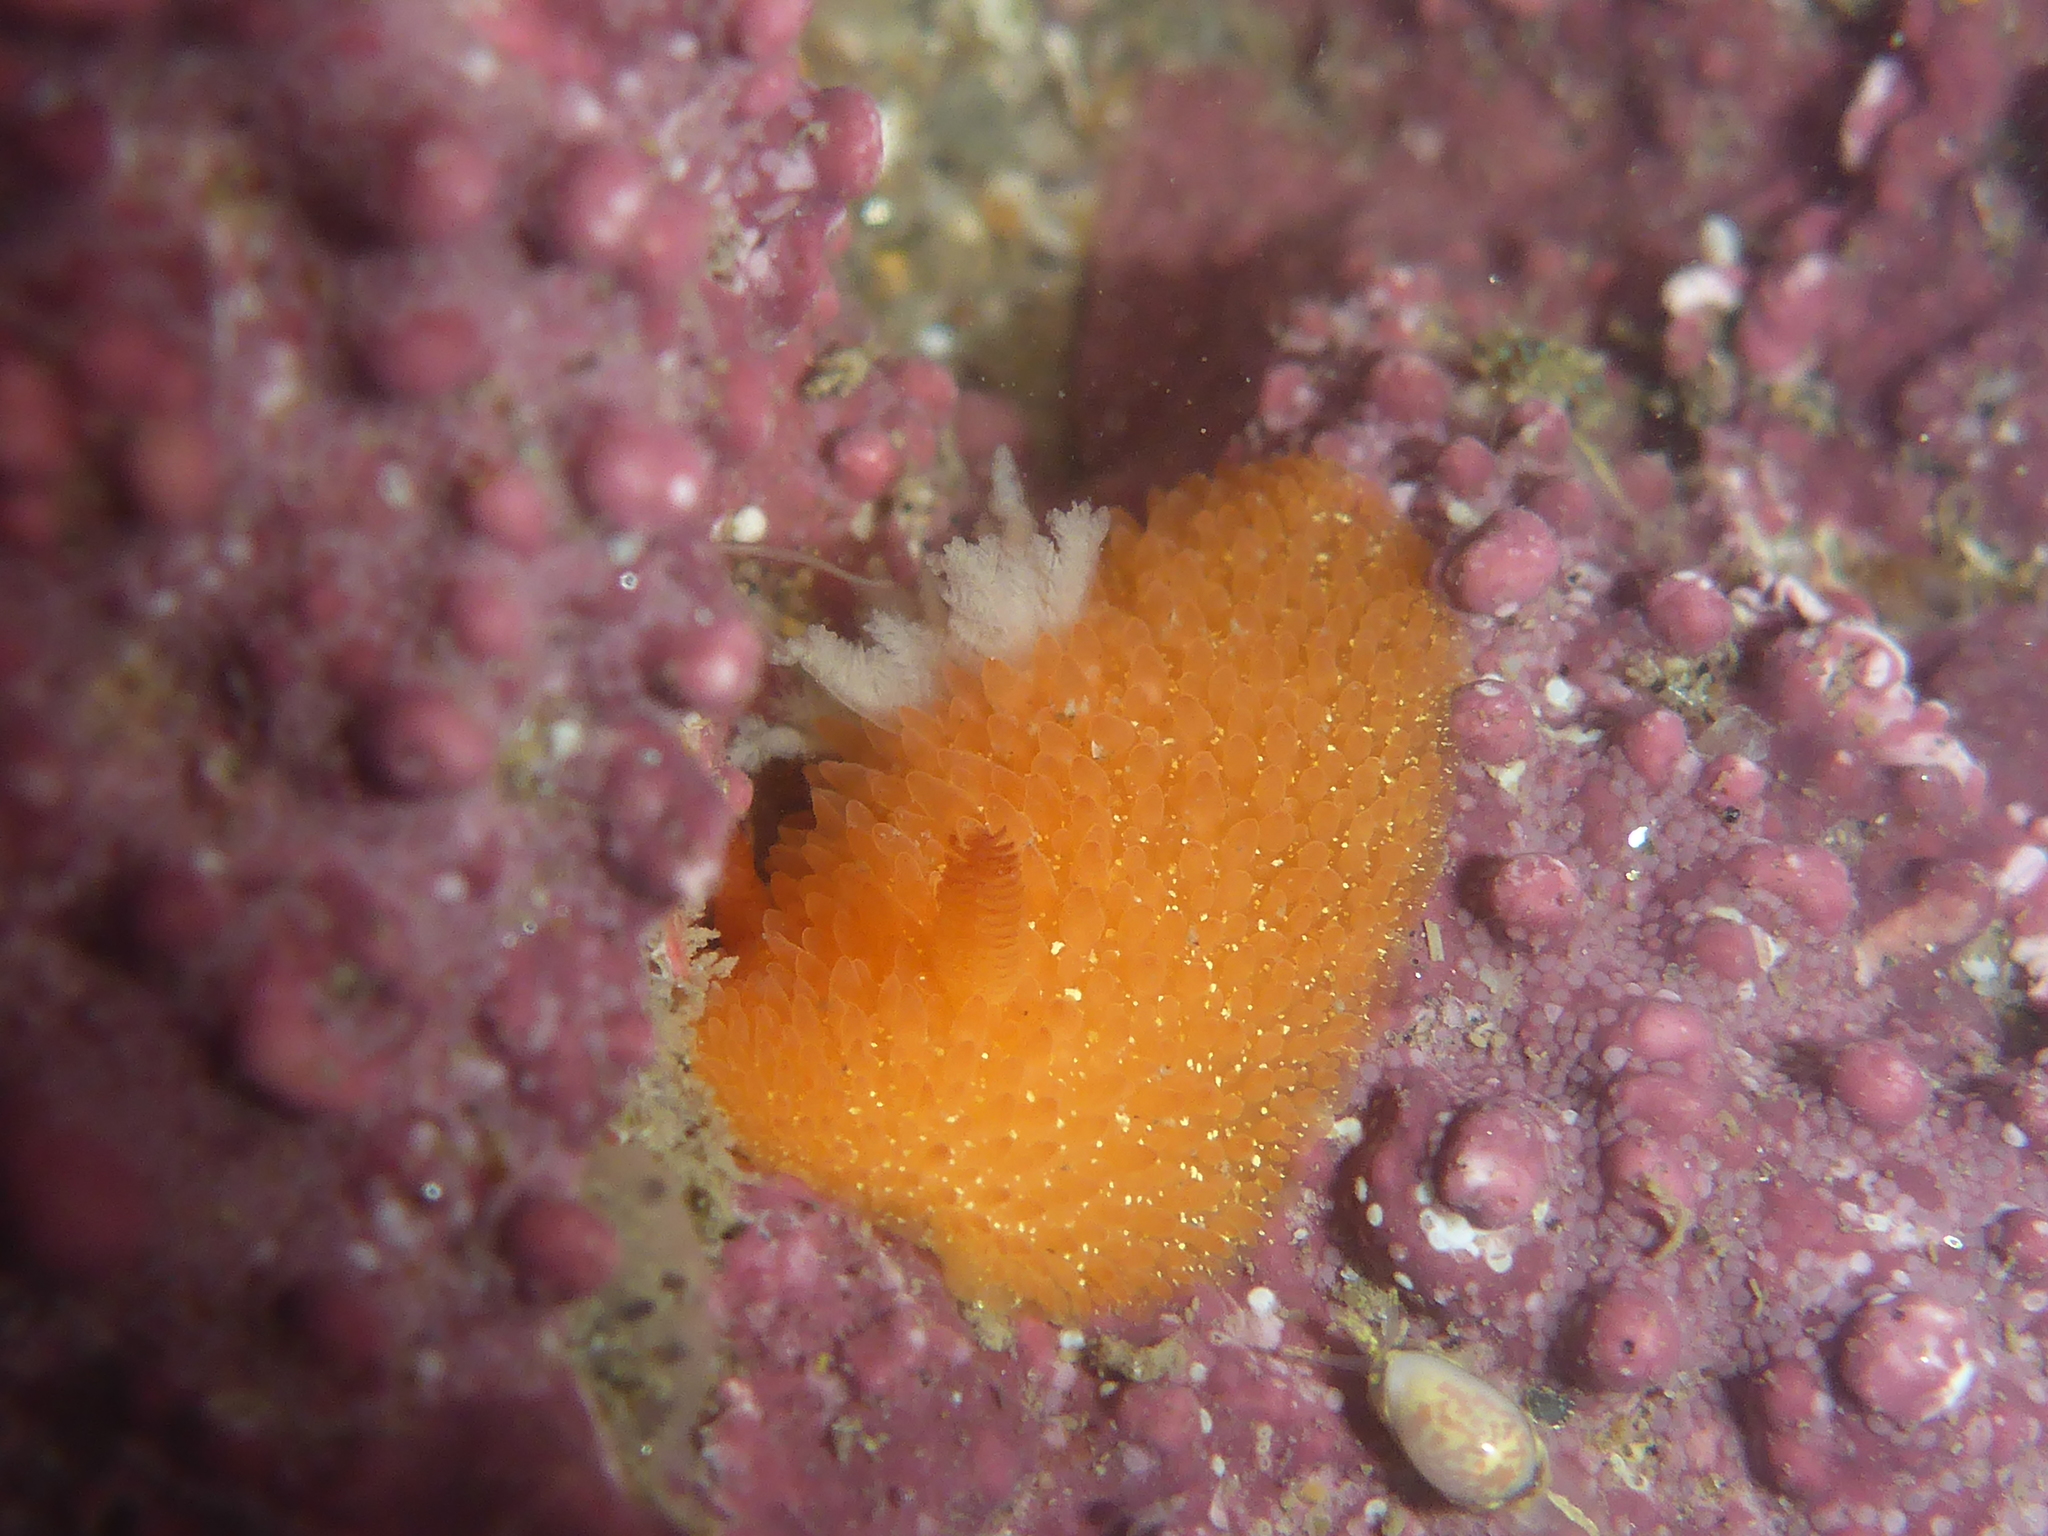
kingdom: Animalia
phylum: Mollusca
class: Gastropoda
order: Nudibranchia
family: Onchidorididae
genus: Acanthodoris
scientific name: Acanthodoris lutea
